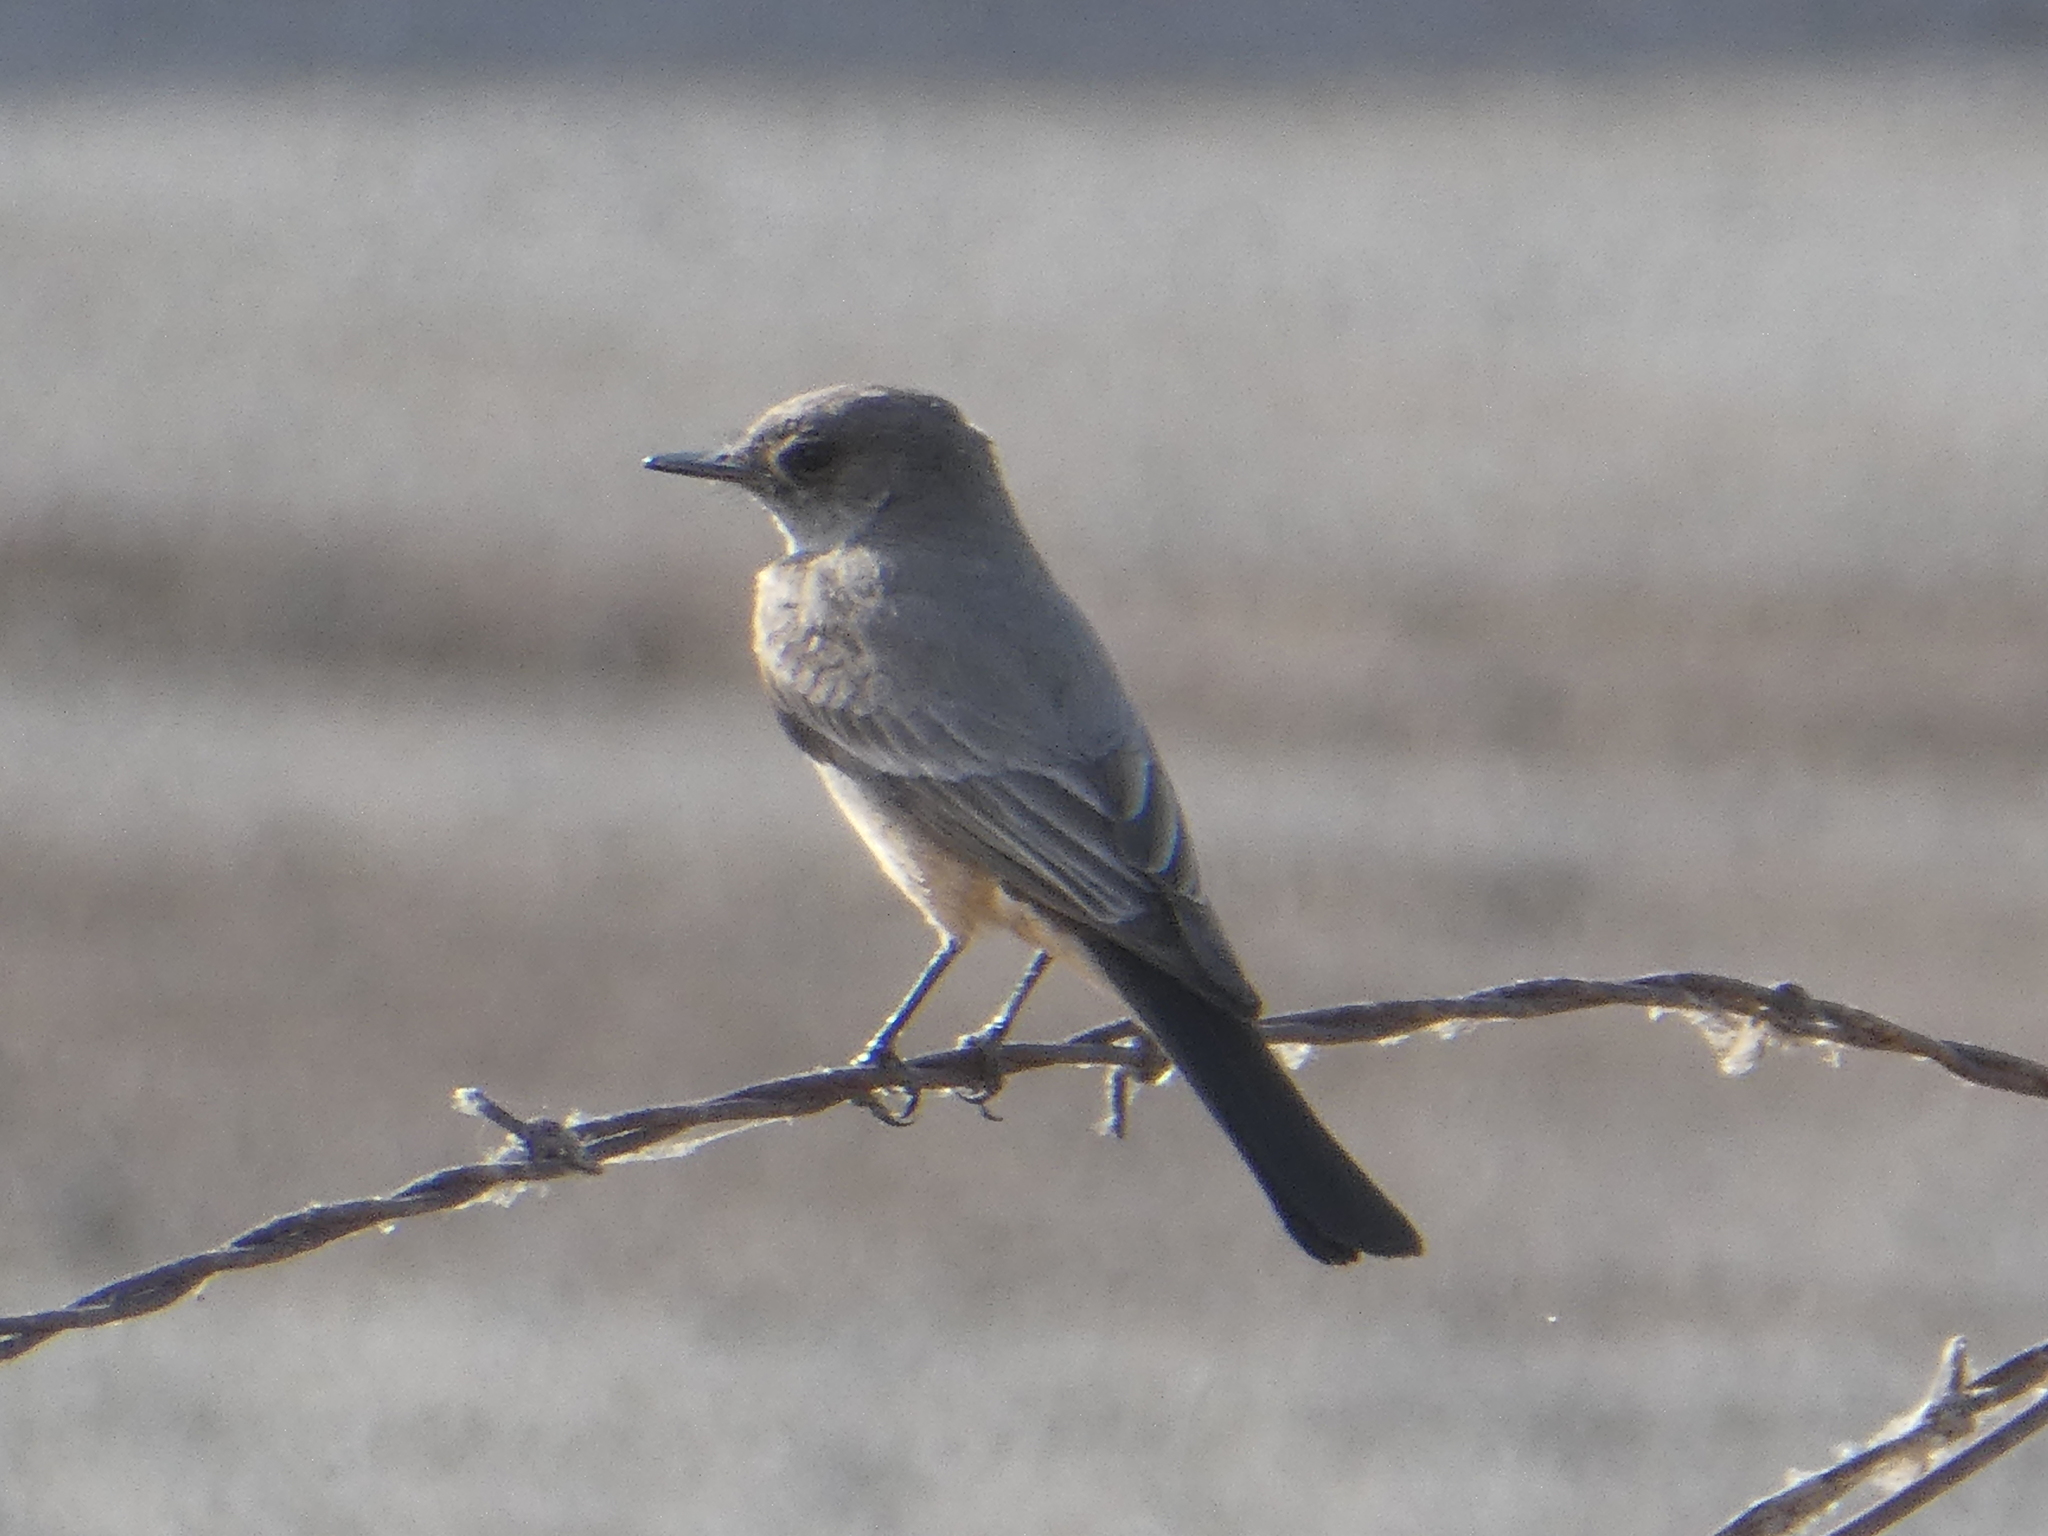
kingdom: Animalia
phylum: Chordata
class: Aves
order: Passeriformes
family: Tyrannidae
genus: Sayornis
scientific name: Sayornis saya
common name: Say's phoebe
